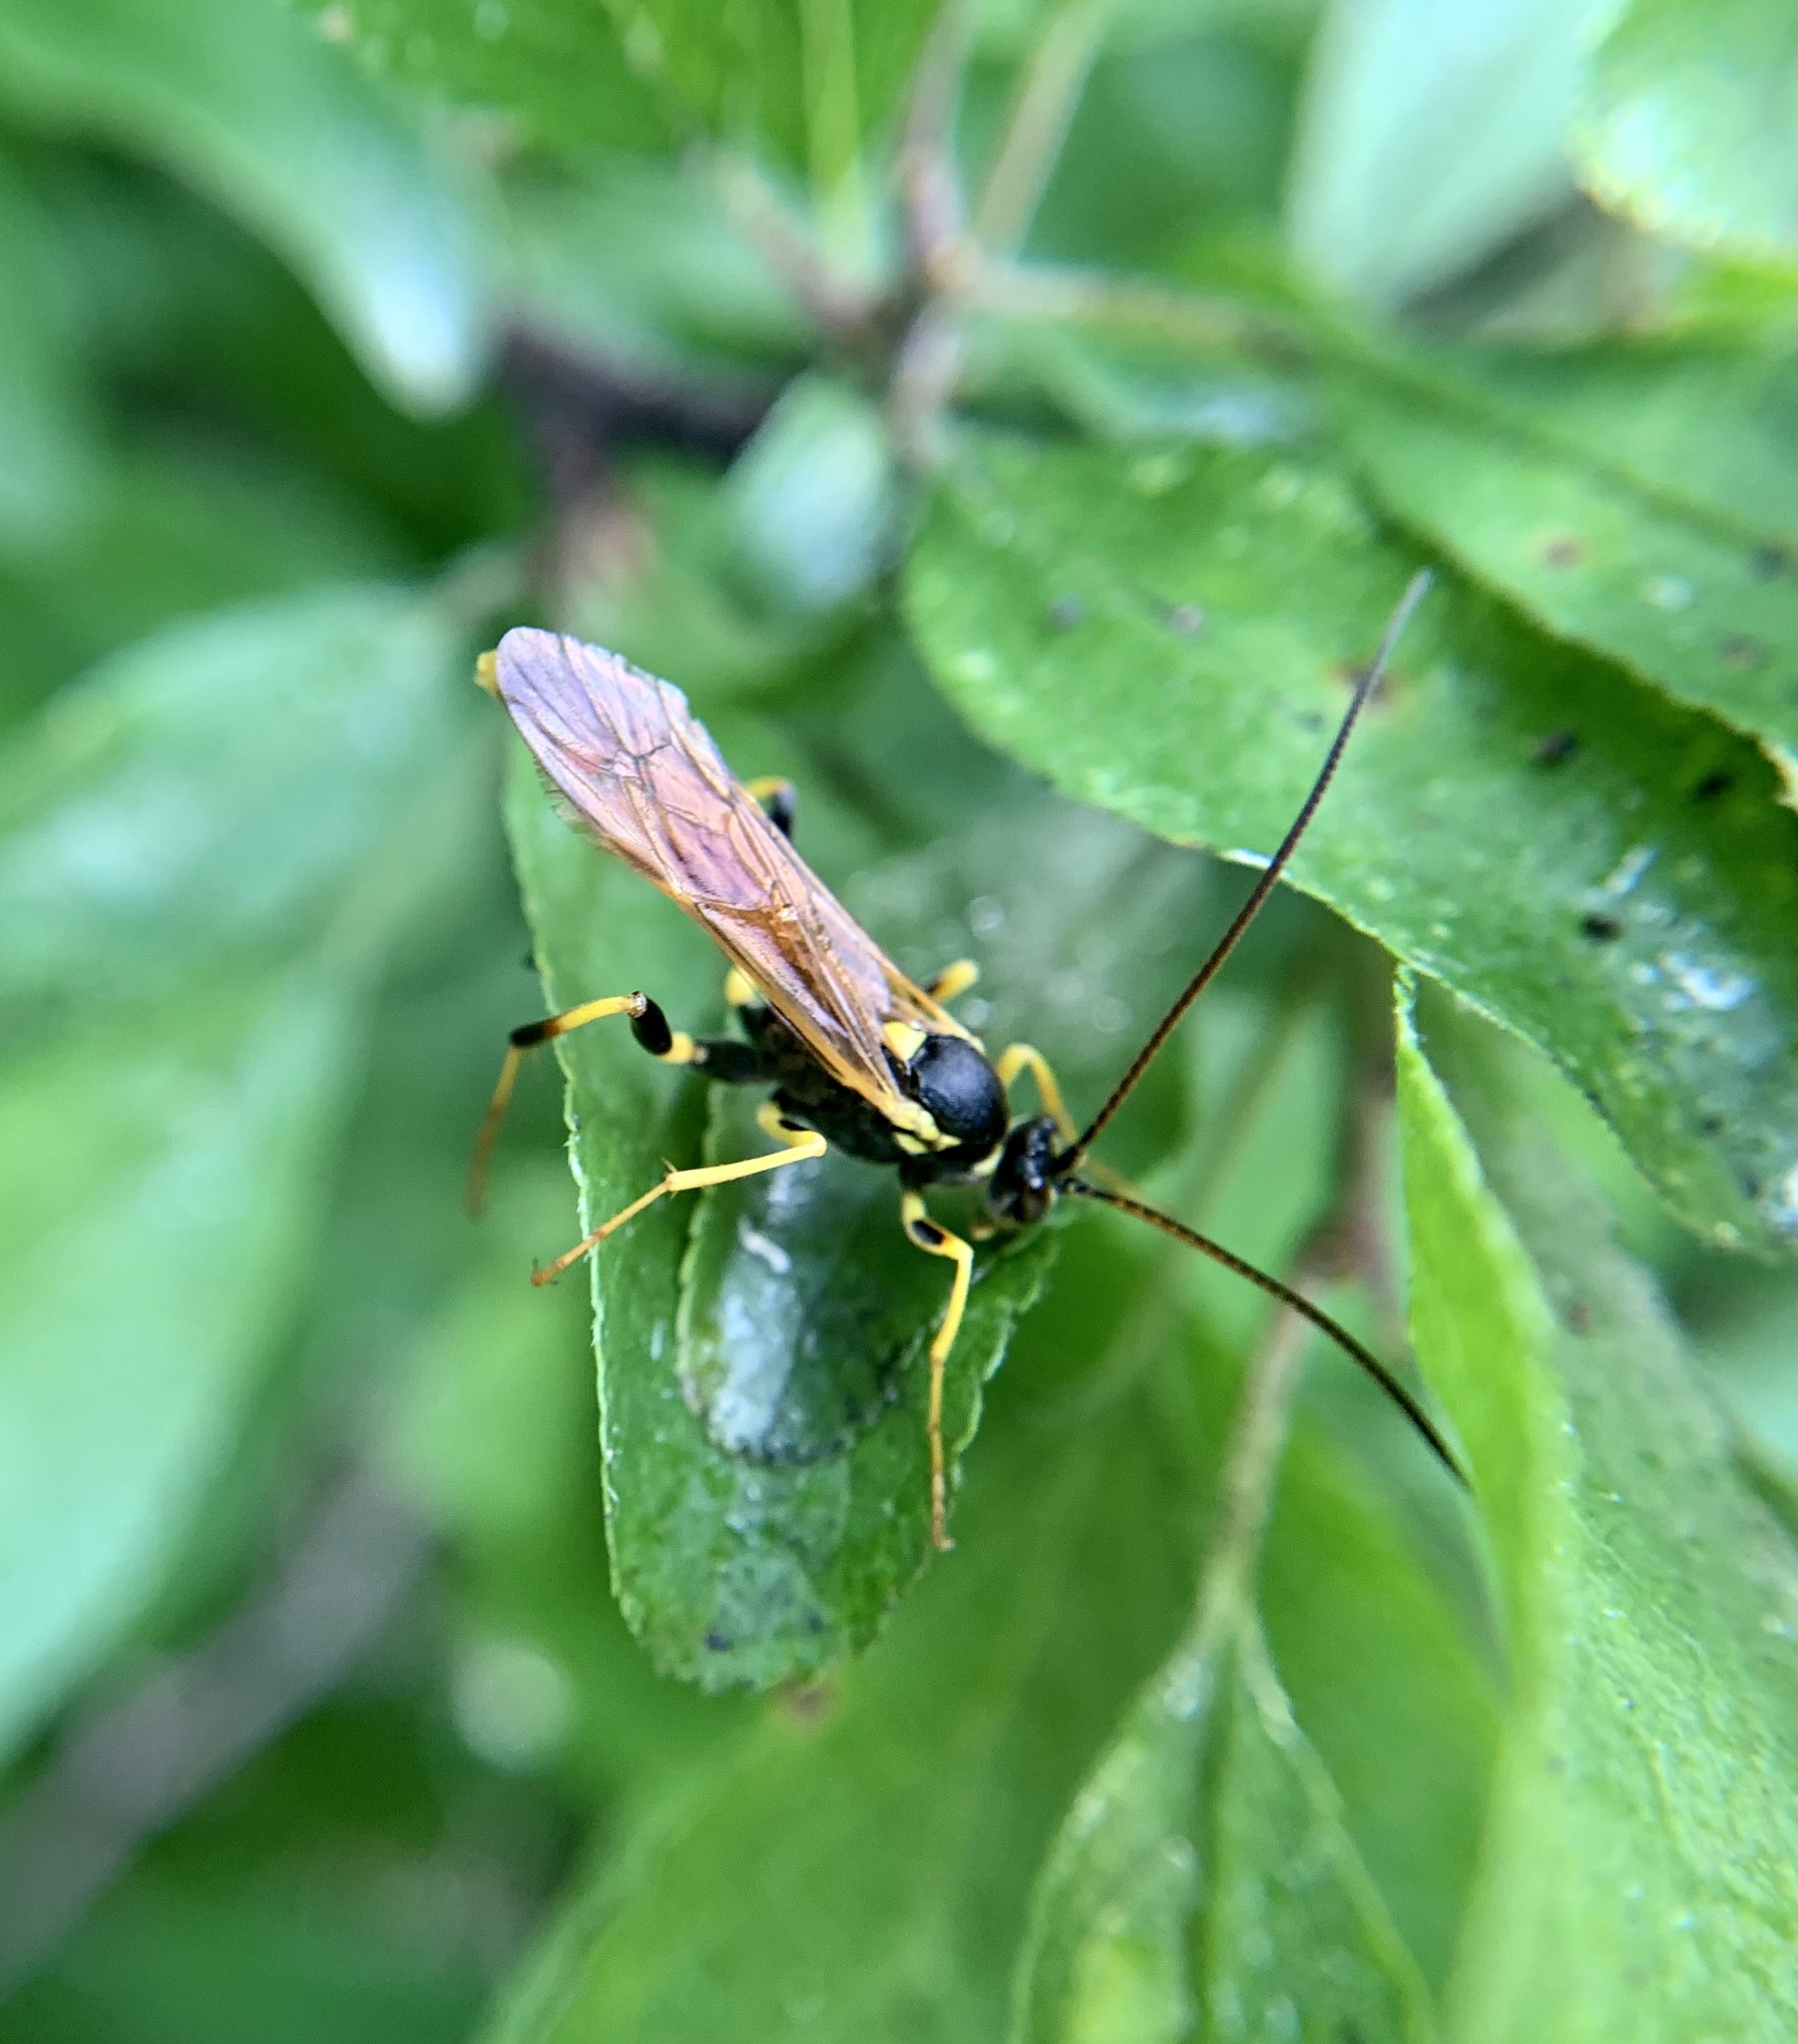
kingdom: Animalia
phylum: Arthropoda
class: Insecta
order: Hymenoptera
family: Ichneumonidae
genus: Amblyteles
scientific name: Amblyteles armatorius
